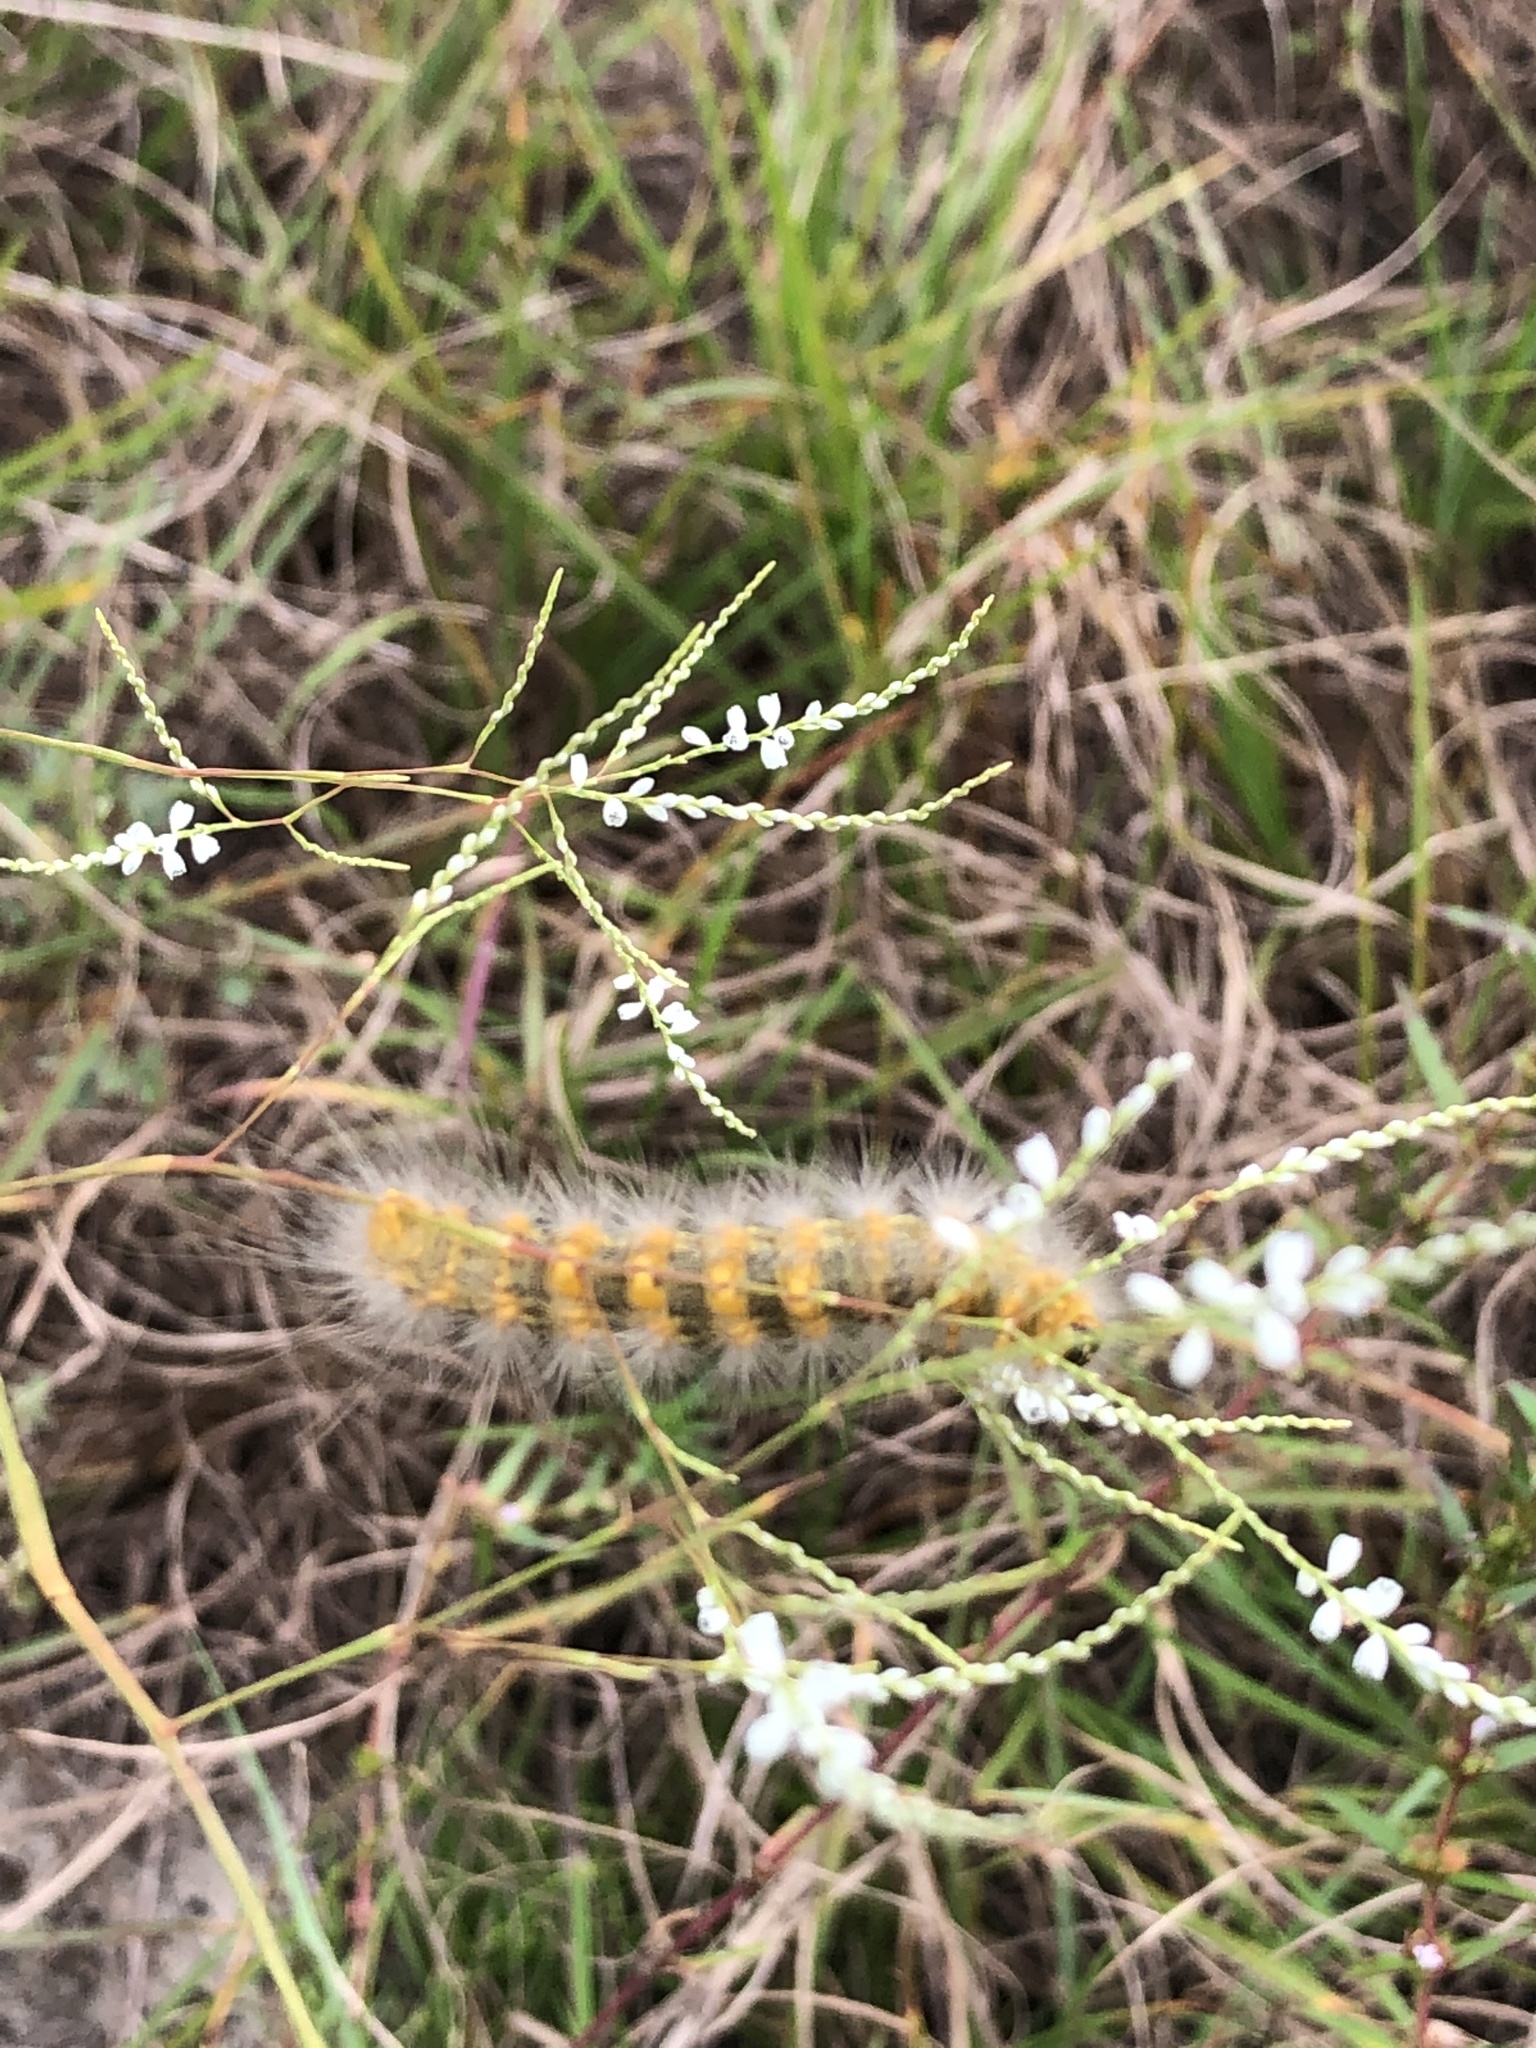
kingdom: Animalia
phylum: Arthropoda
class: Insecta
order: Lepidoptera
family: Erebidae
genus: Estigmene
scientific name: Estigmene acrea
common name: Salt marsh moth
